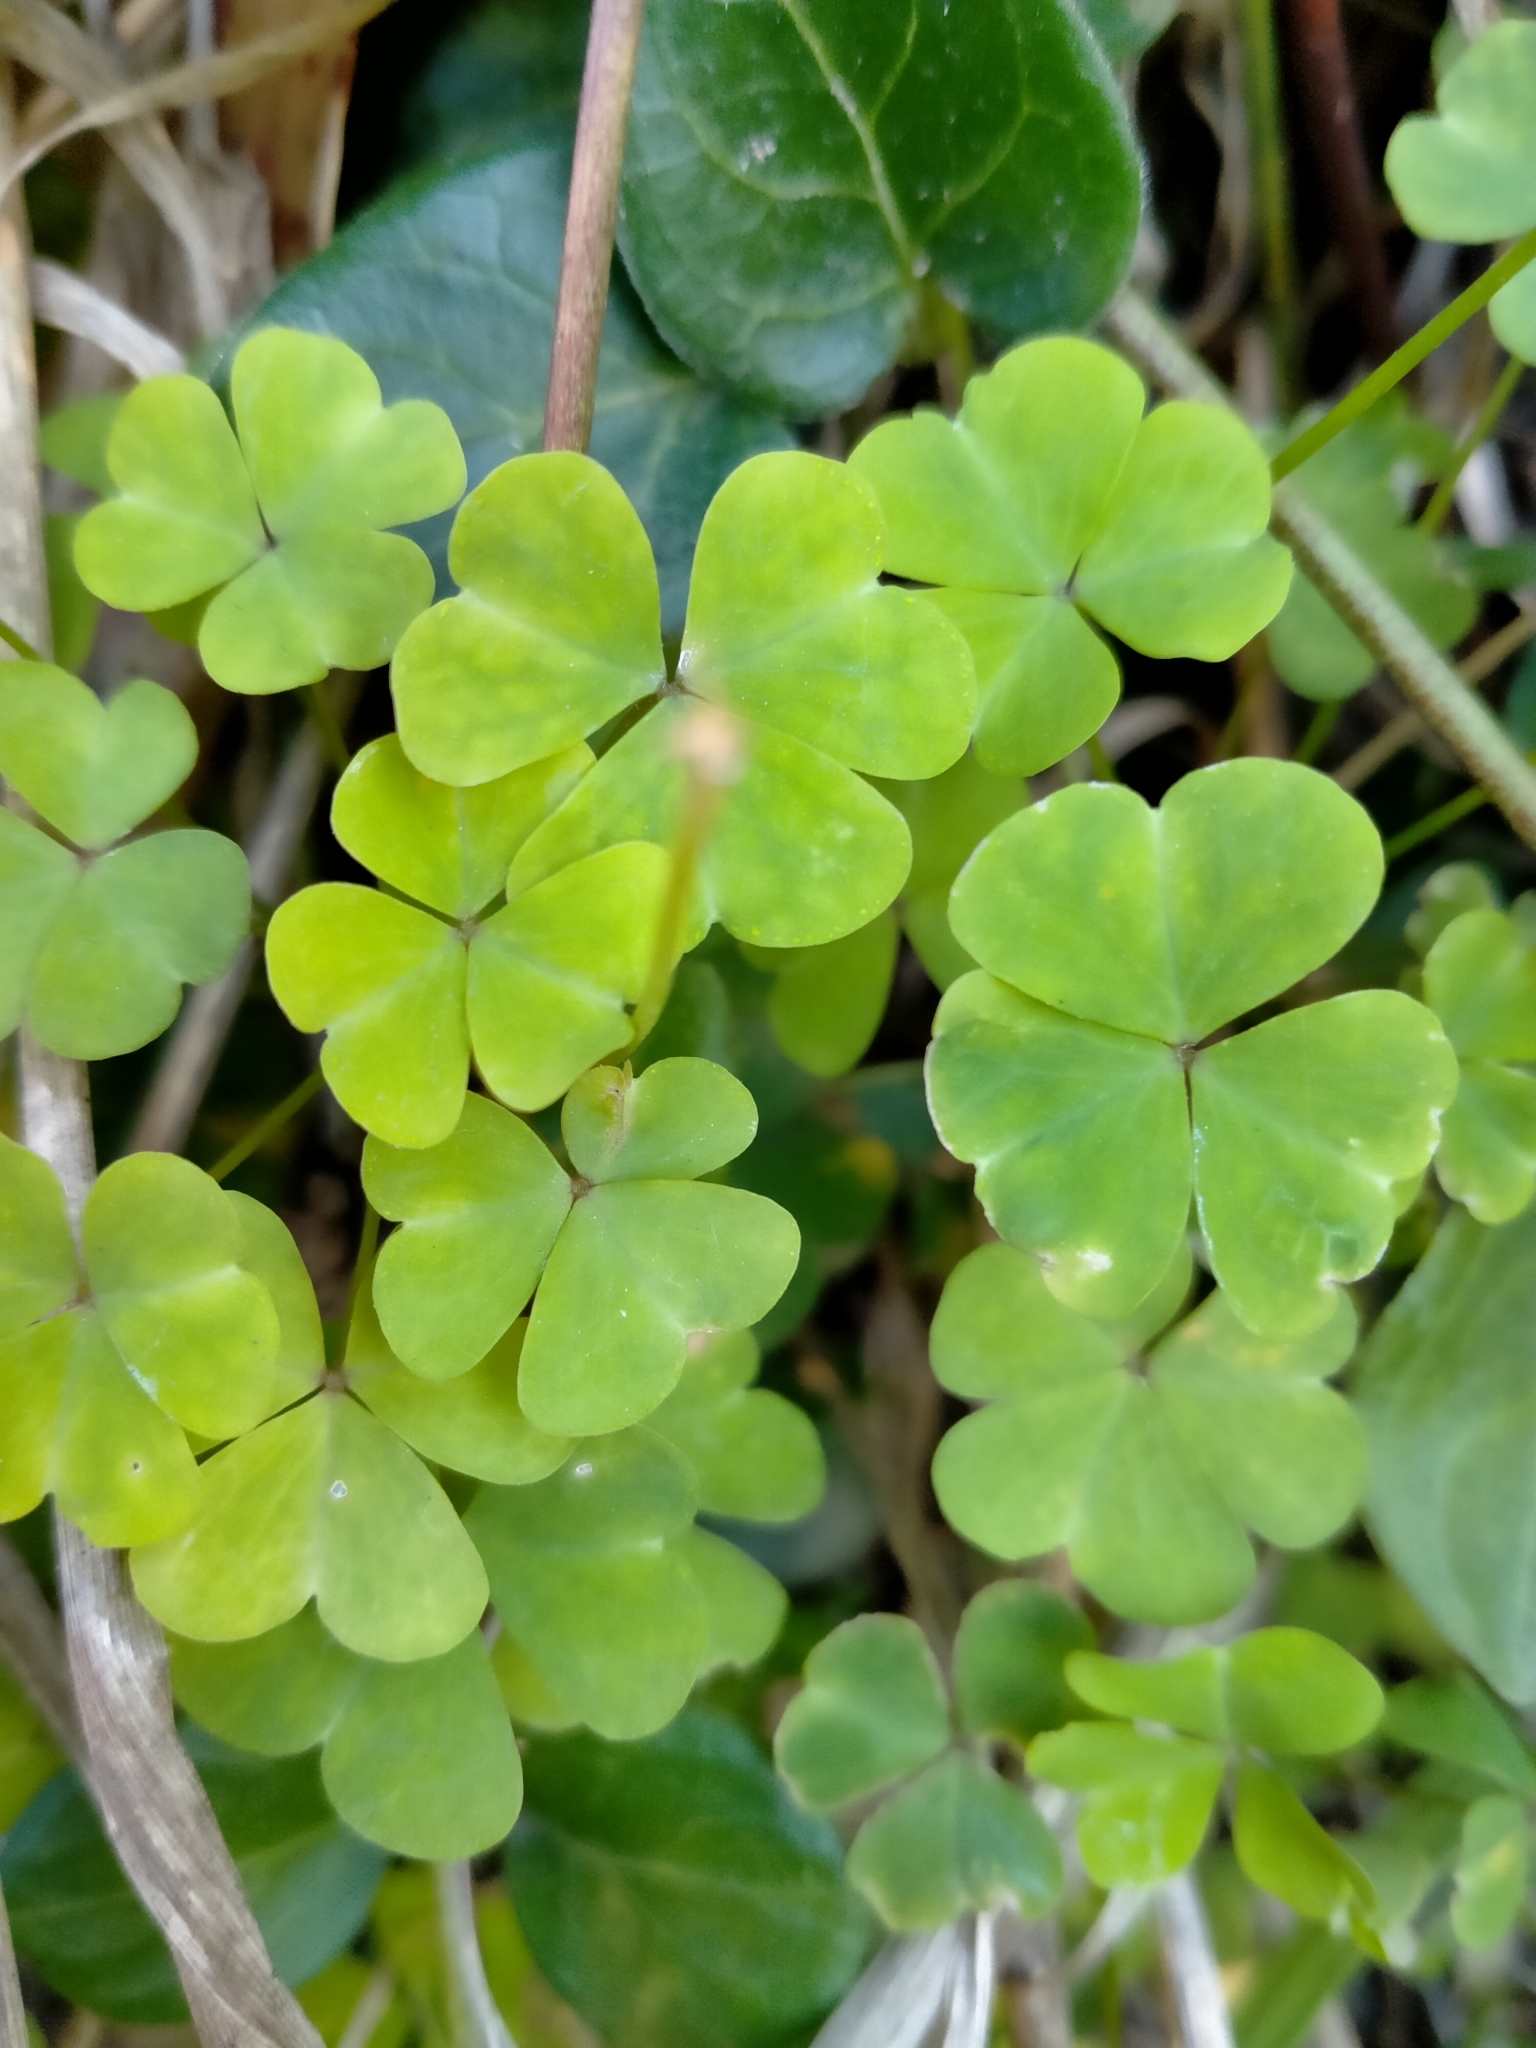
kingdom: Plantae
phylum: Tracheophyta
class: Magnoliopsida
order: Oxalidales
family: Oxalidaceae
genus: Oxalis
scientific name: Oxalis incarnata
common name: Pale pink-sorrel
